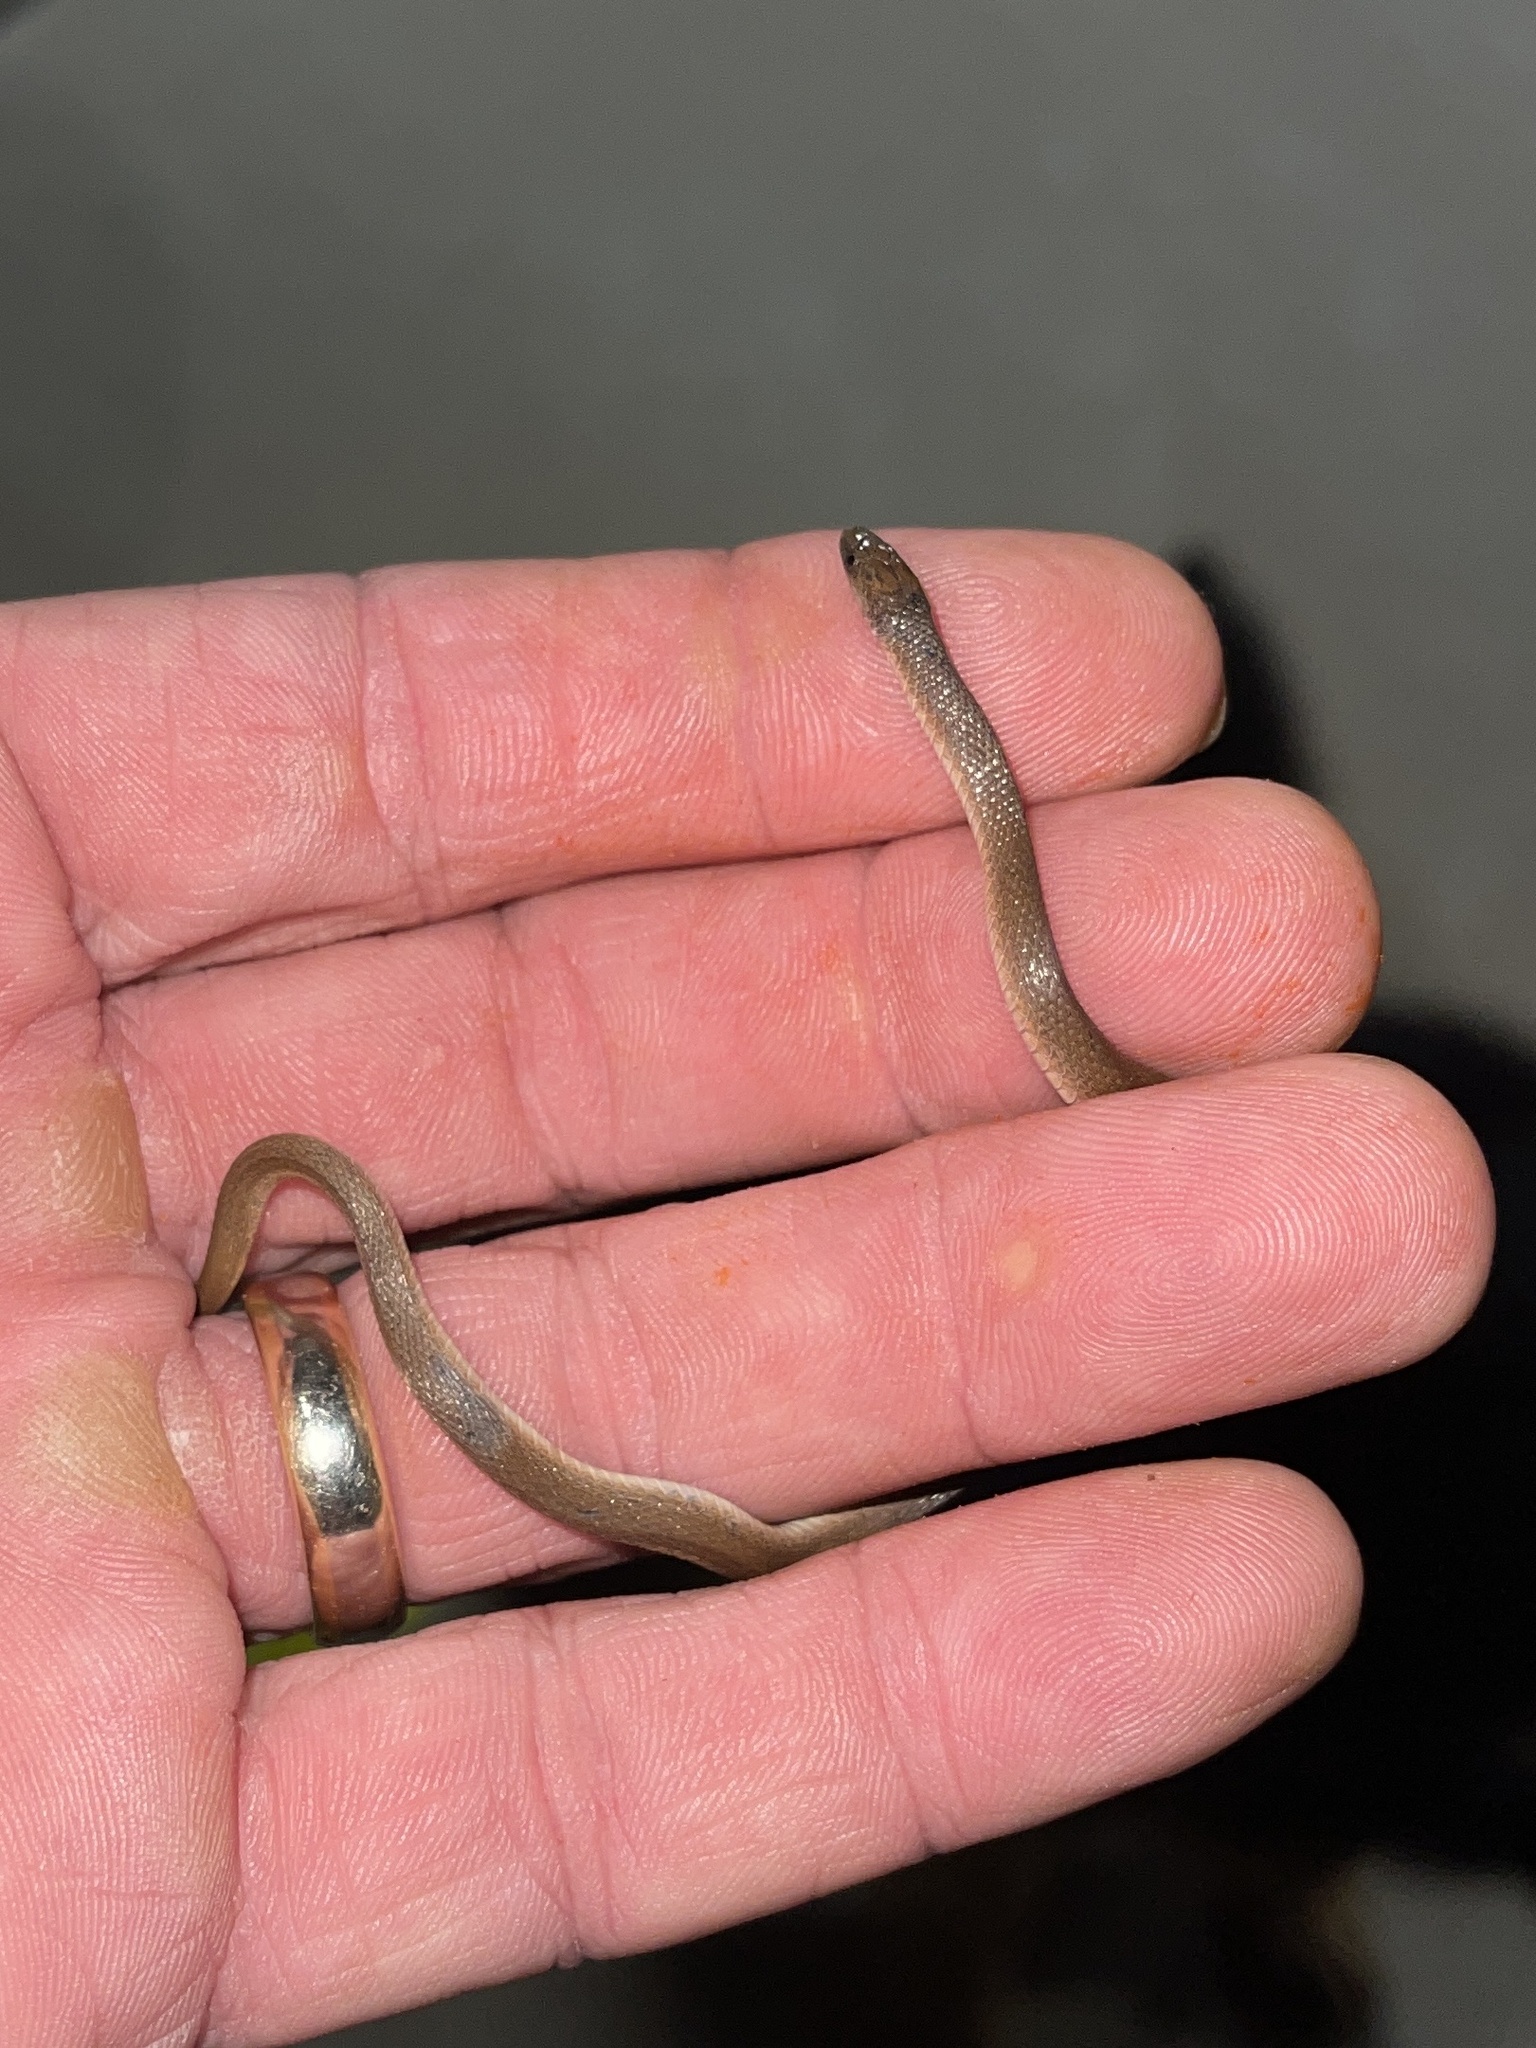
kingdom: Animalia
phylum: Chordata
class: Squamata
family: Colubridae
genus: Haldea
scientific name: Haldea striatula
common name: Rough earth snake
